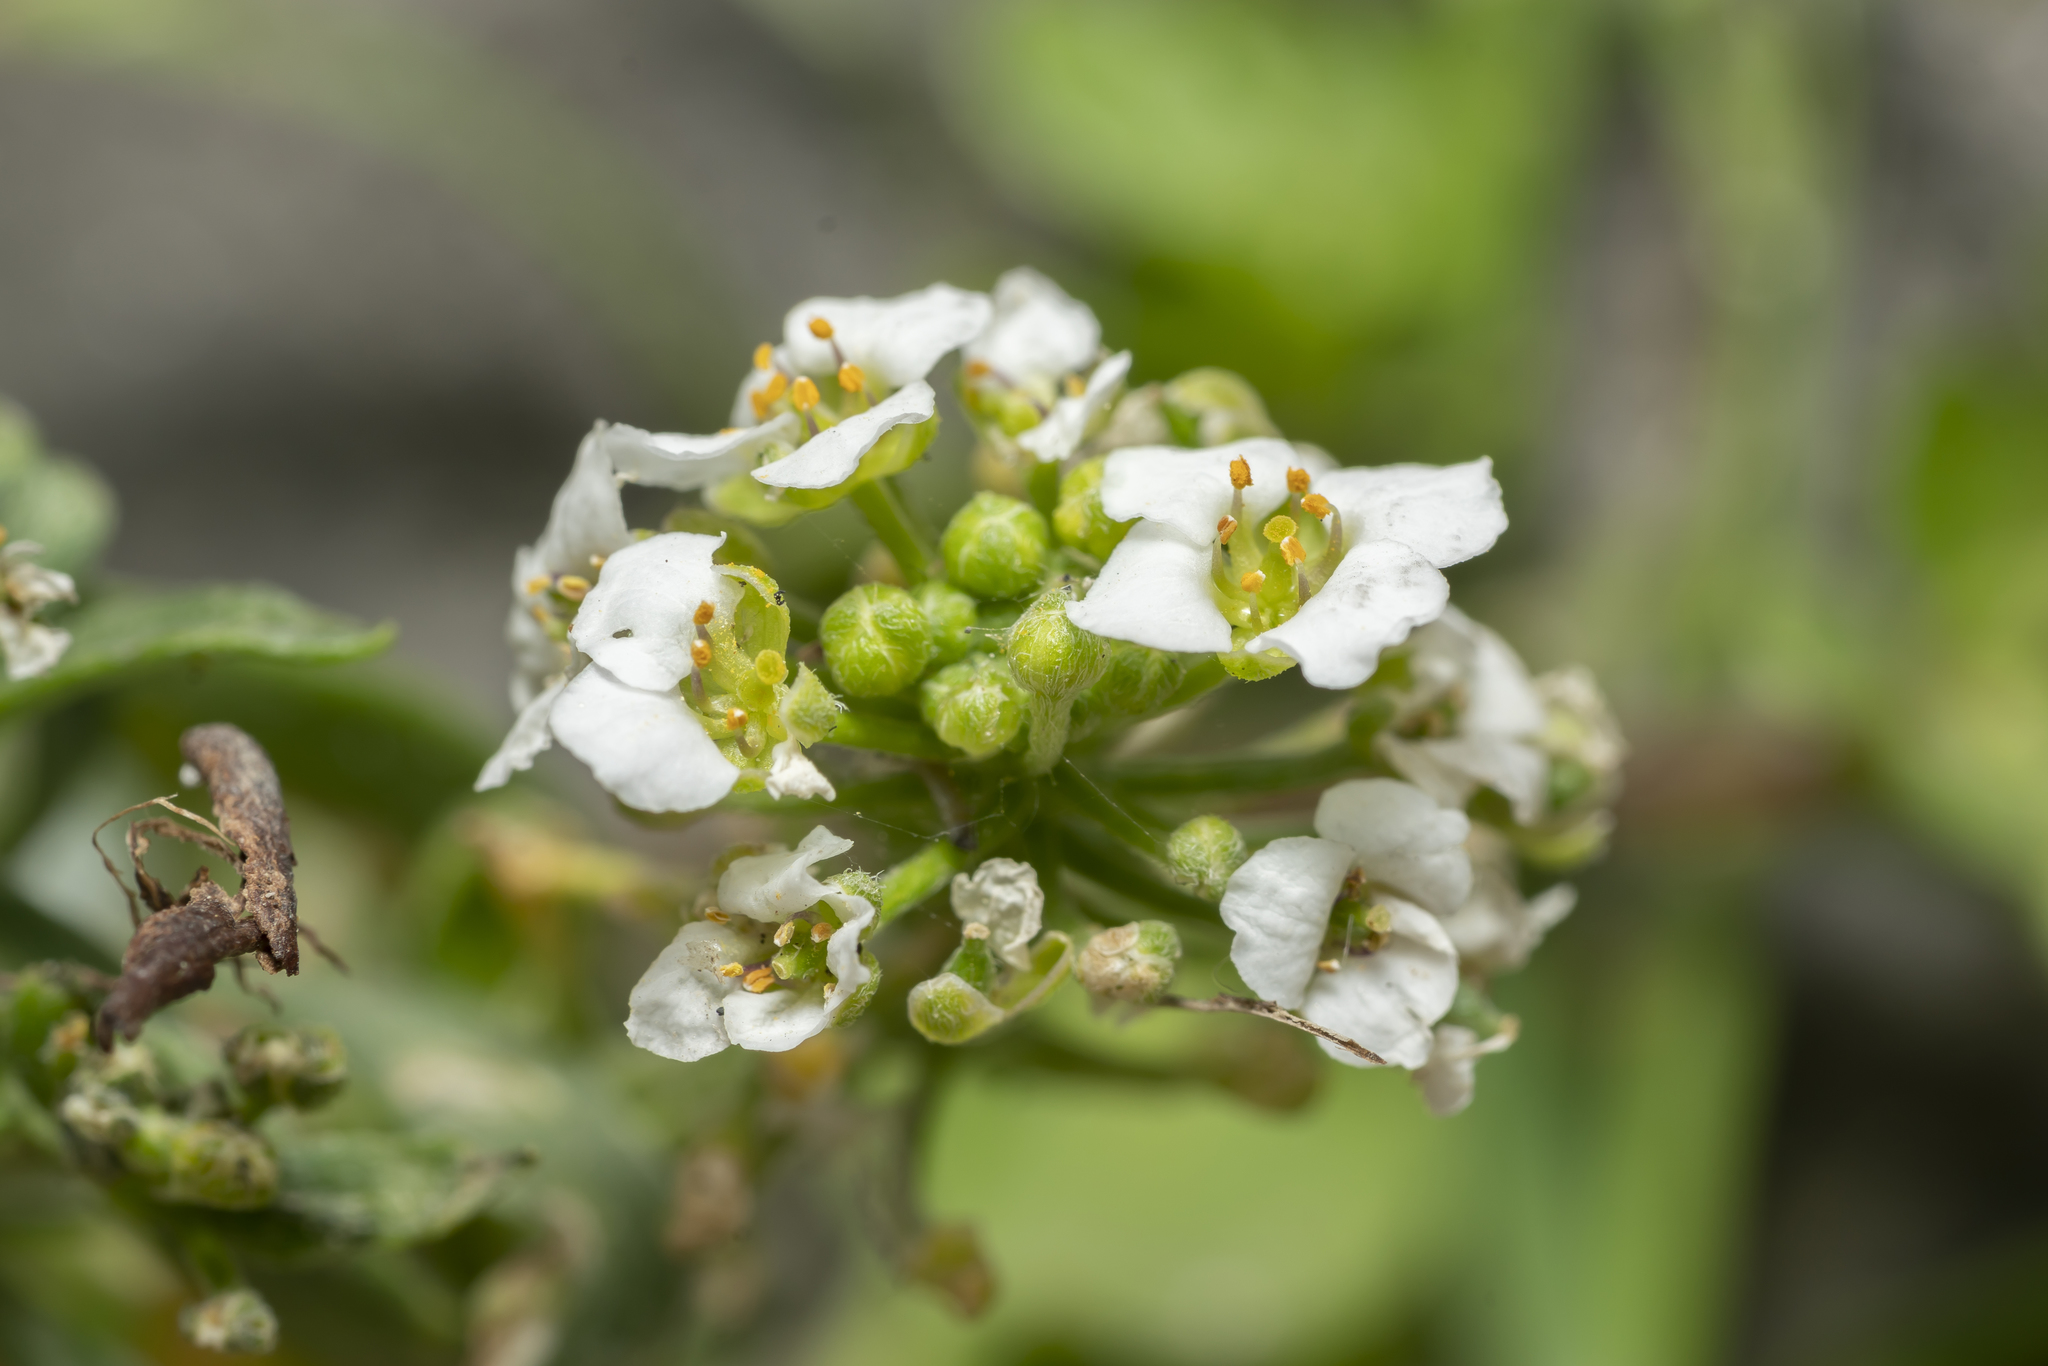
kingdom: Plantae
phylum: Tracheophyta
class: Magnoliopsida
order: Brassicales
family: Brassicaceae
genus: Lobularia
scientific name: Lobularia maritima
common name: Sweet alison
